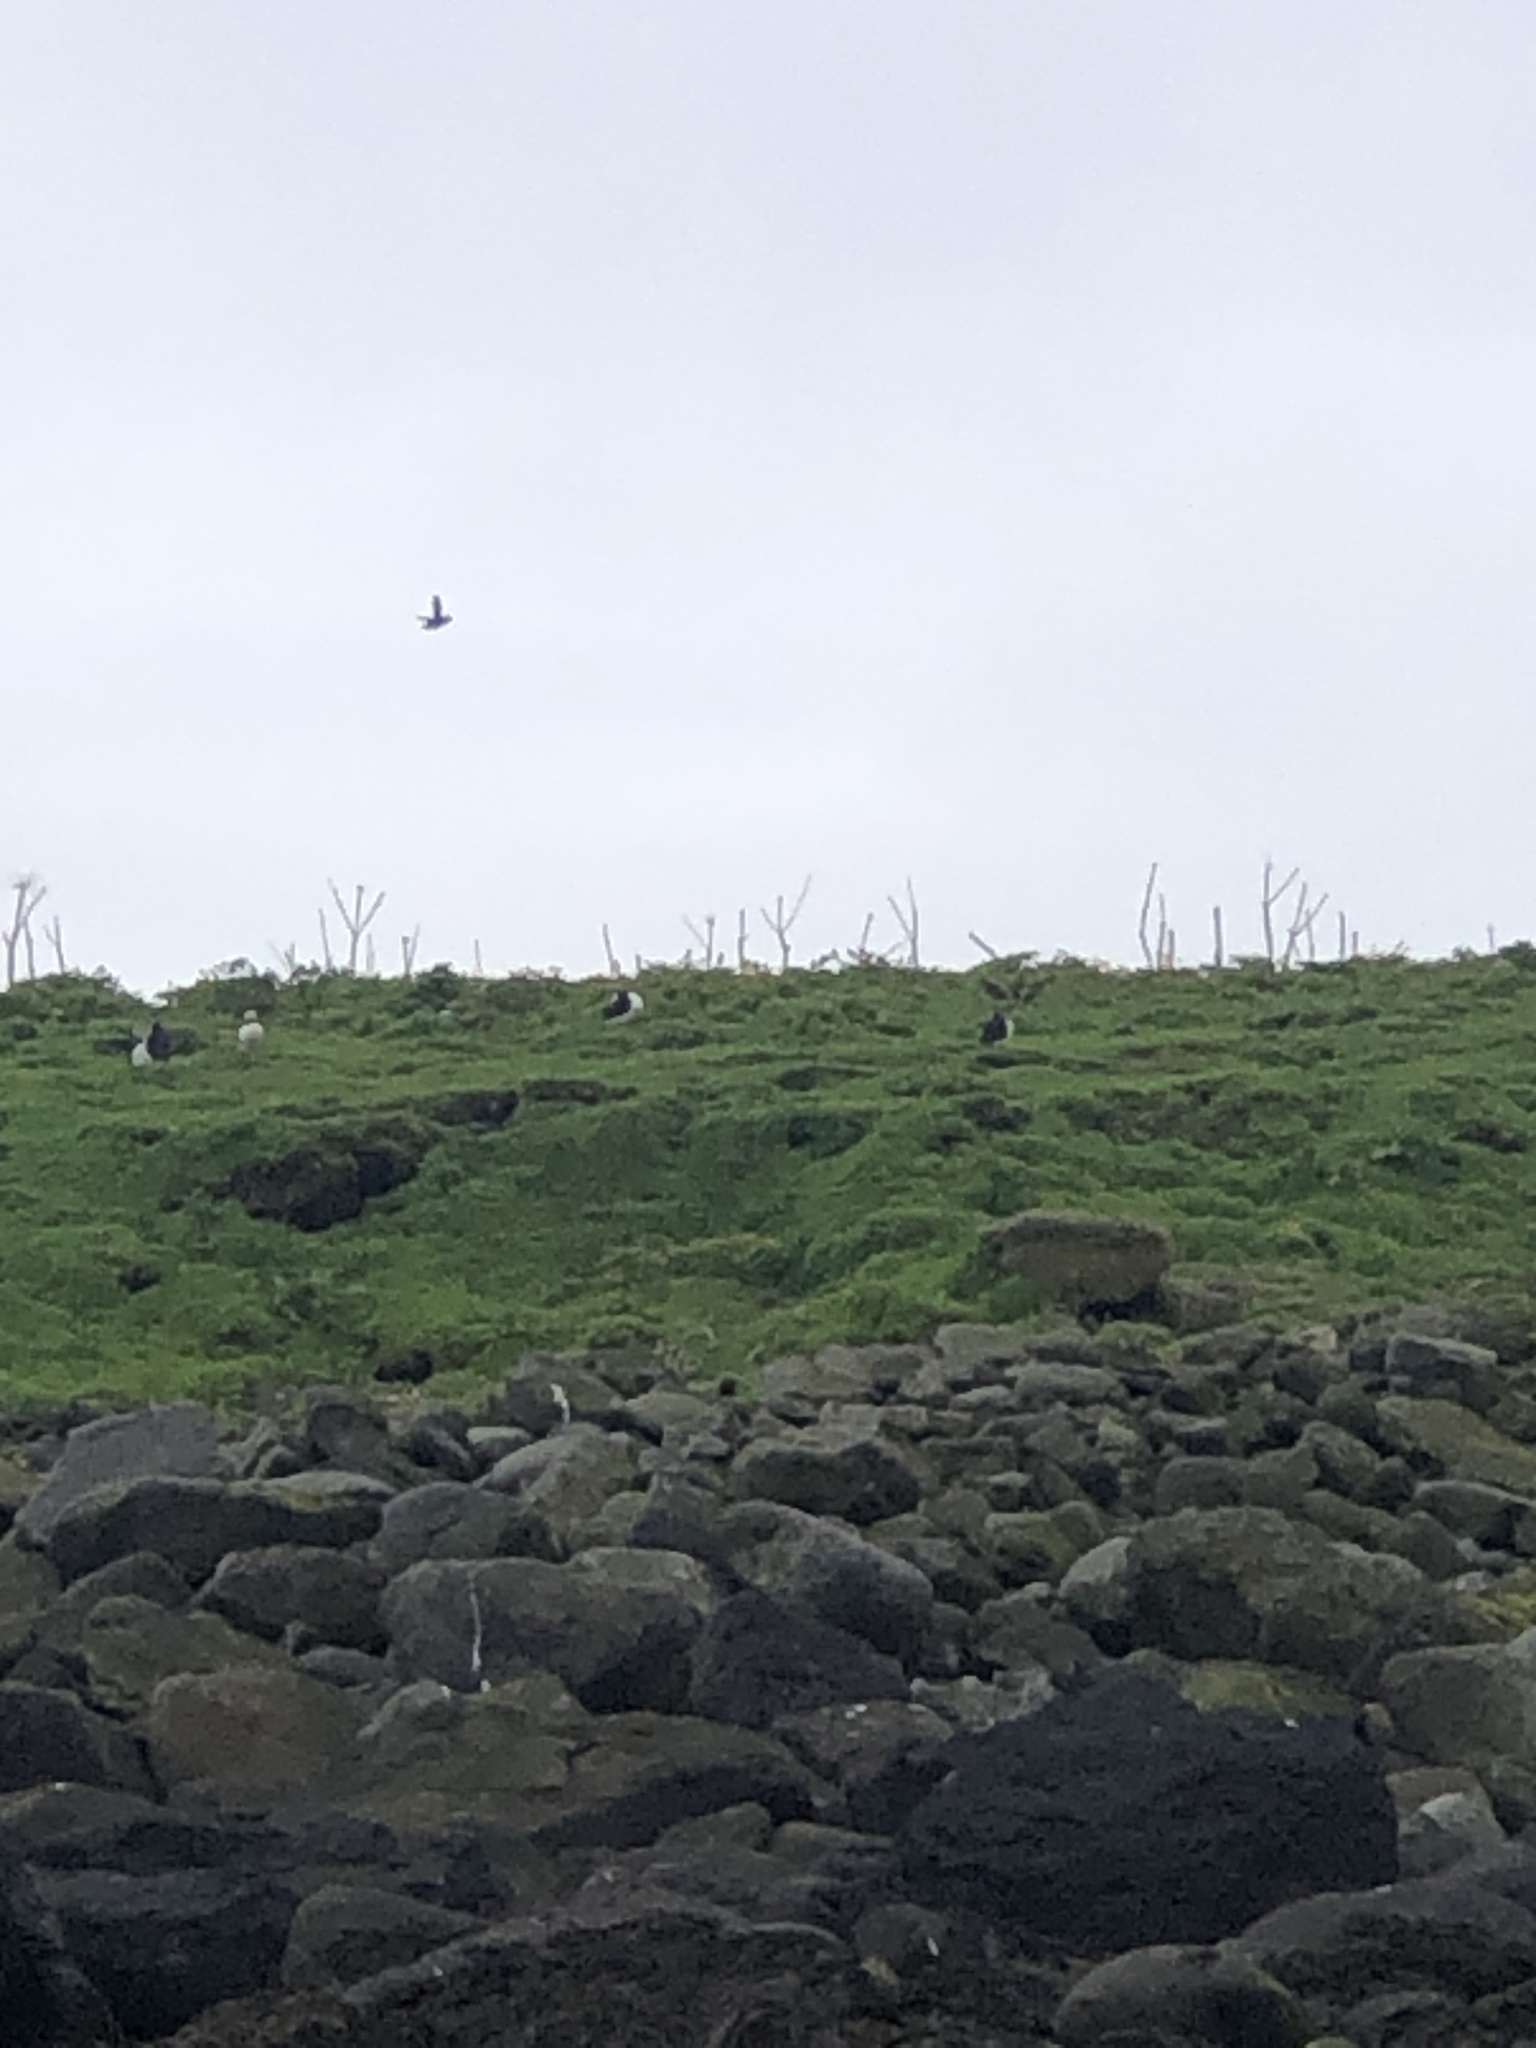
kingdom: Animalia
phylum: Chordata
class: Aves
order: Charadriiformes
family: Alcidae
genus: Fratercula
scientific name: Fratercula arctica
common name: Atlantic puffin
